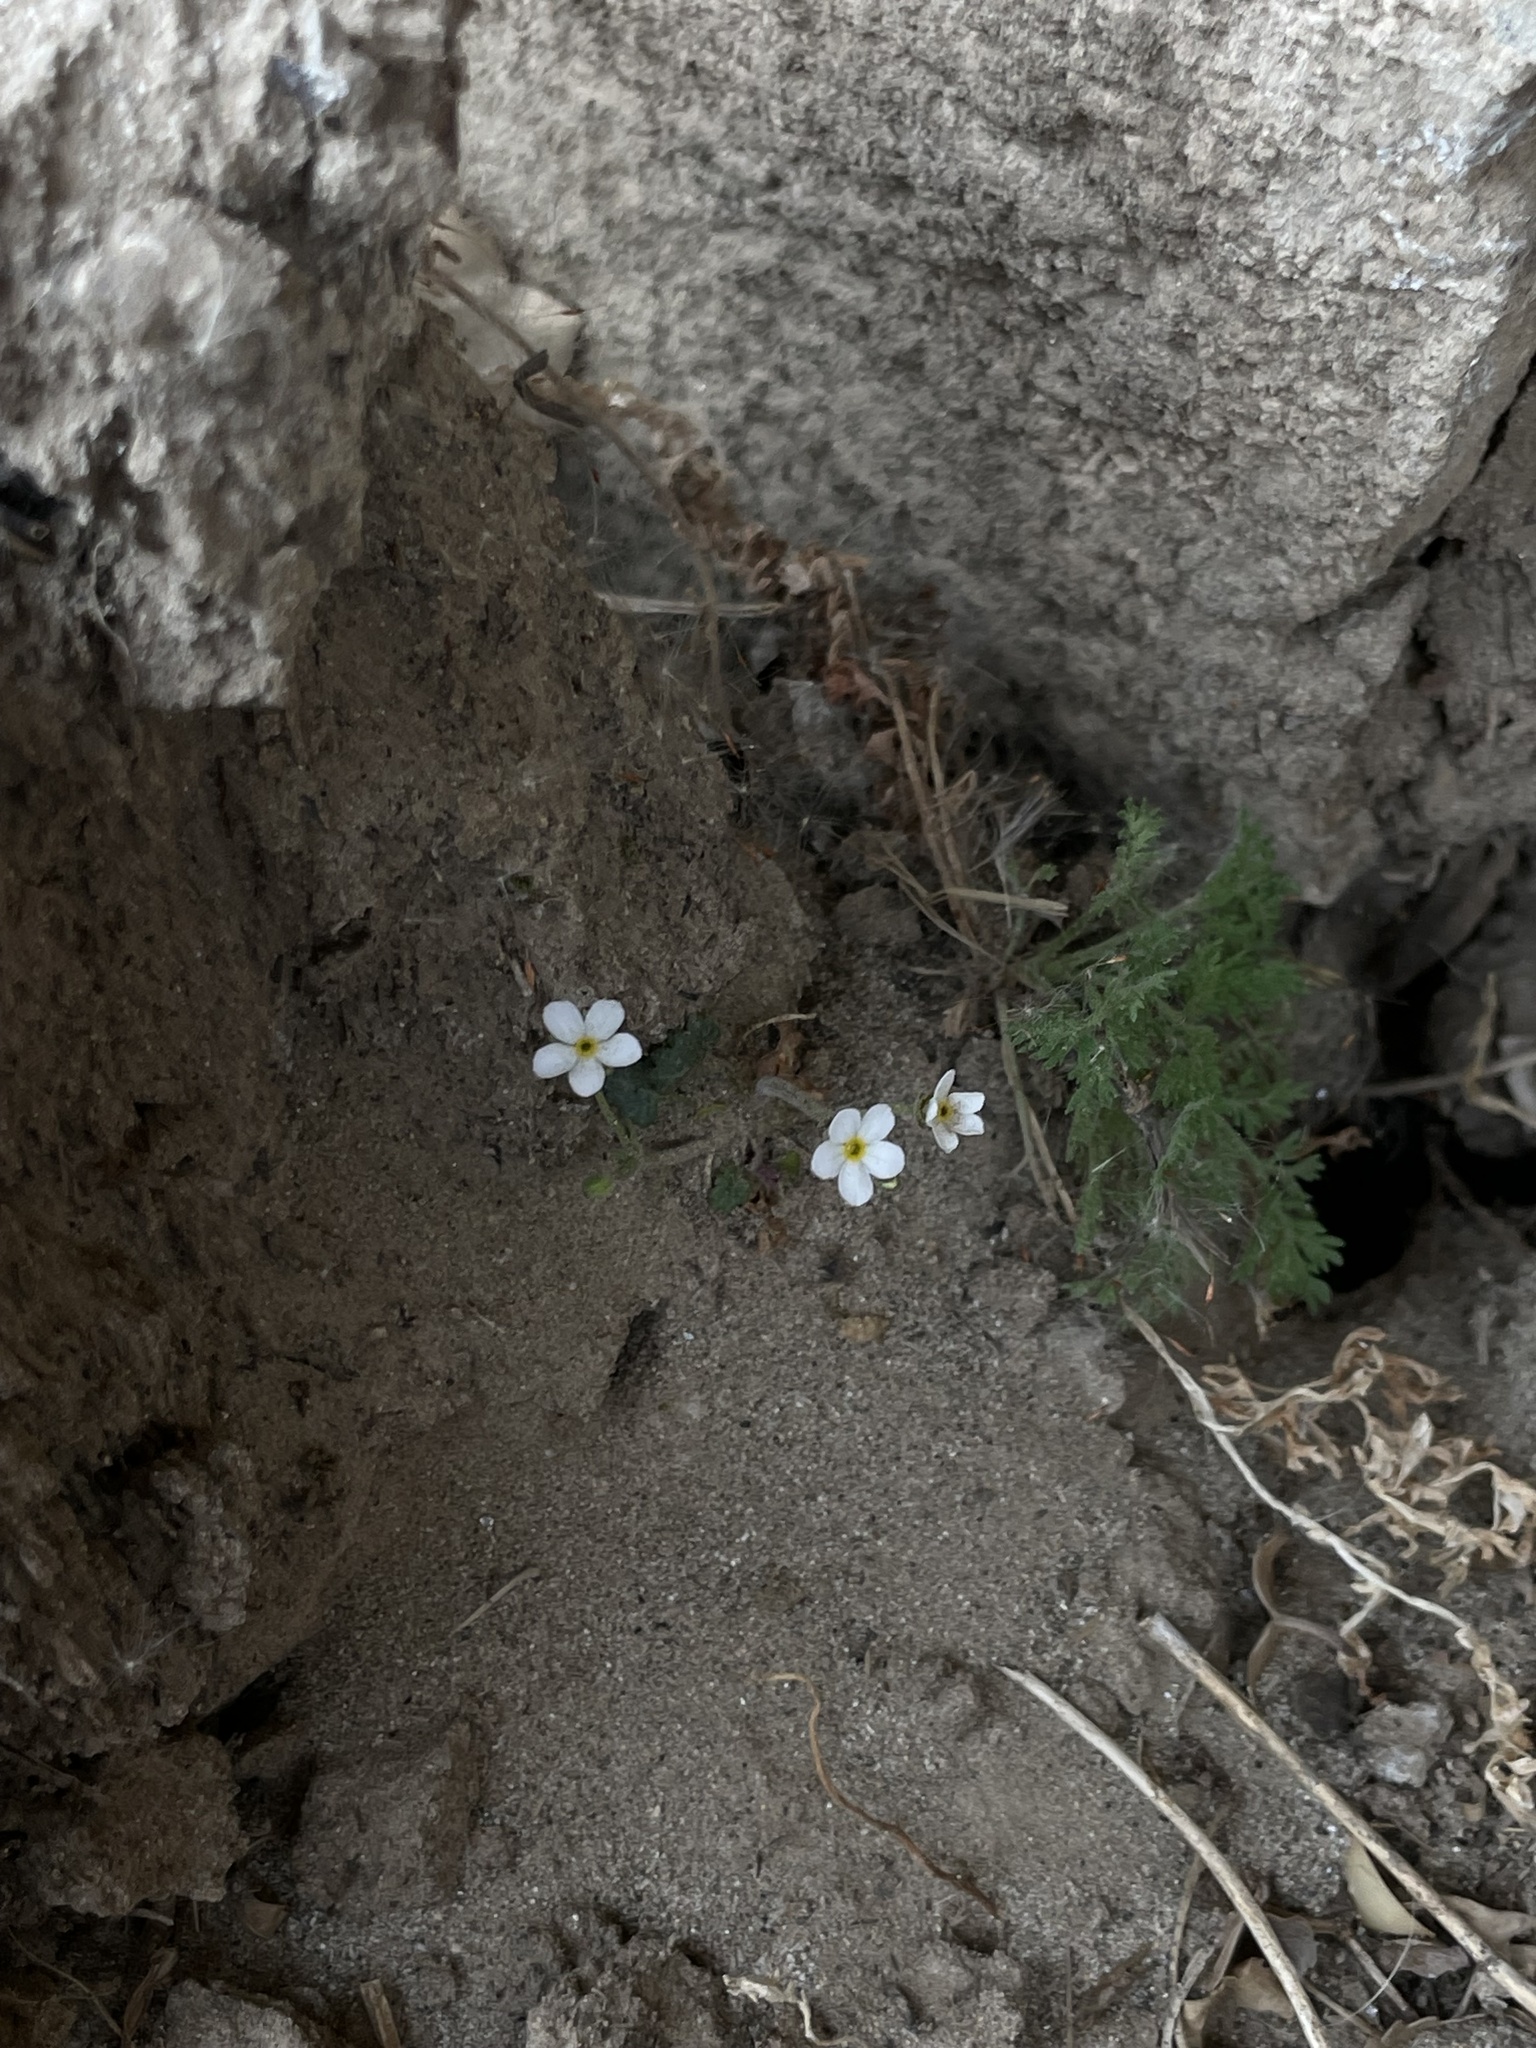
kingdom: Plantae
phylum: Tracheophyta
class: Magnoliopsida
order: Ericales
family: Primulaceae
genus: Androsace
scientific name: Androsace umbellata
